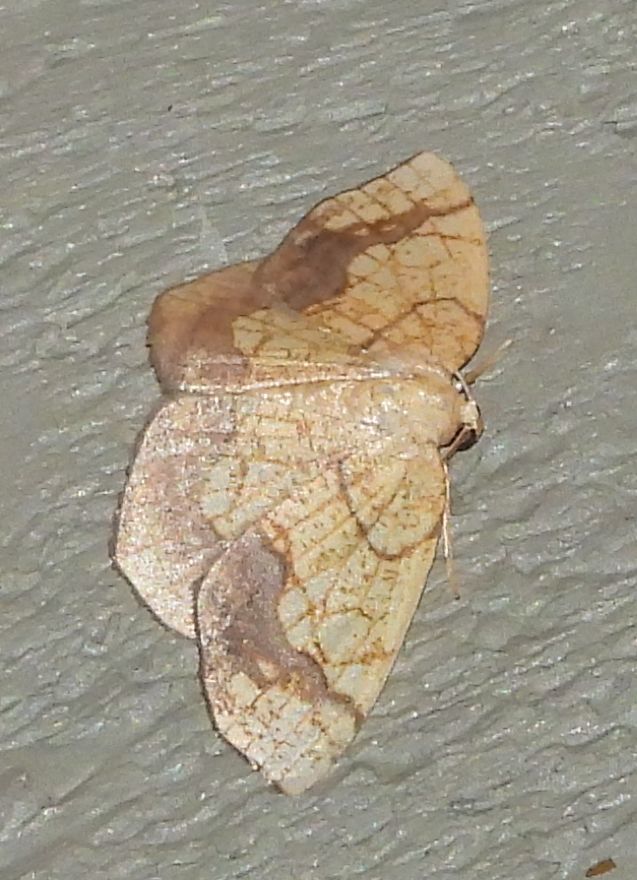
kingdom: Animalia
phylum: Arthropoda
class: Insecta
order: Lepidoptera
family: Geometridae
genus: Nematocampa
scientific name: Nematocampa resistaria
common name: Horned spanworm moth
